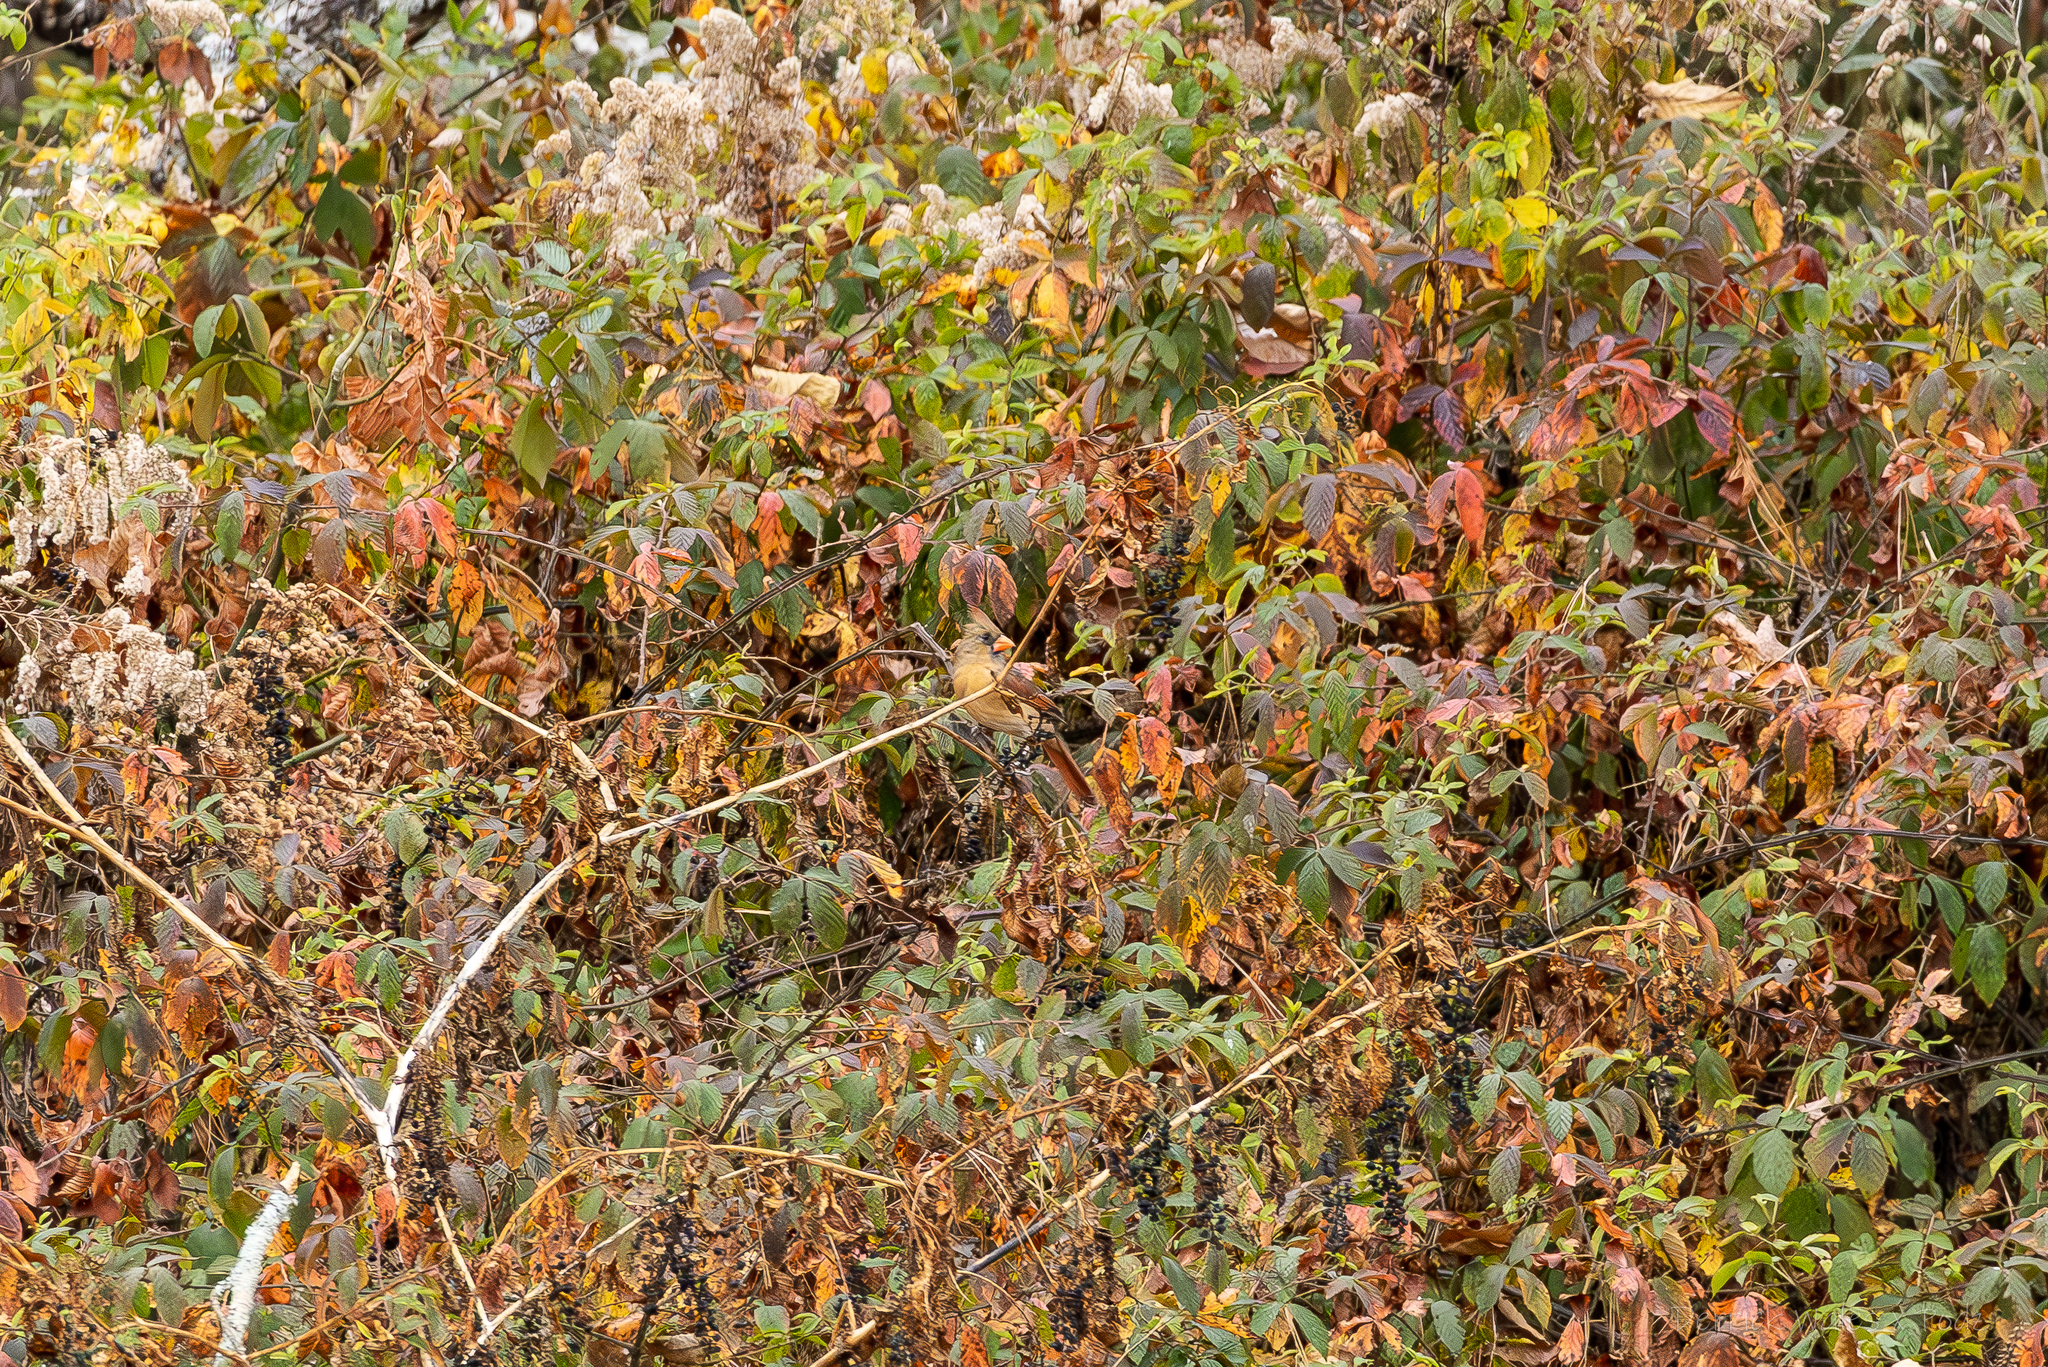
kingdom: Animalia
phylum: Chordata
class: Aves
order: Passeriformes
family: Cardinalidae
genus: Cardinalis
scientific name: Cardinalis cardinalis
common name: Northern cardinal
